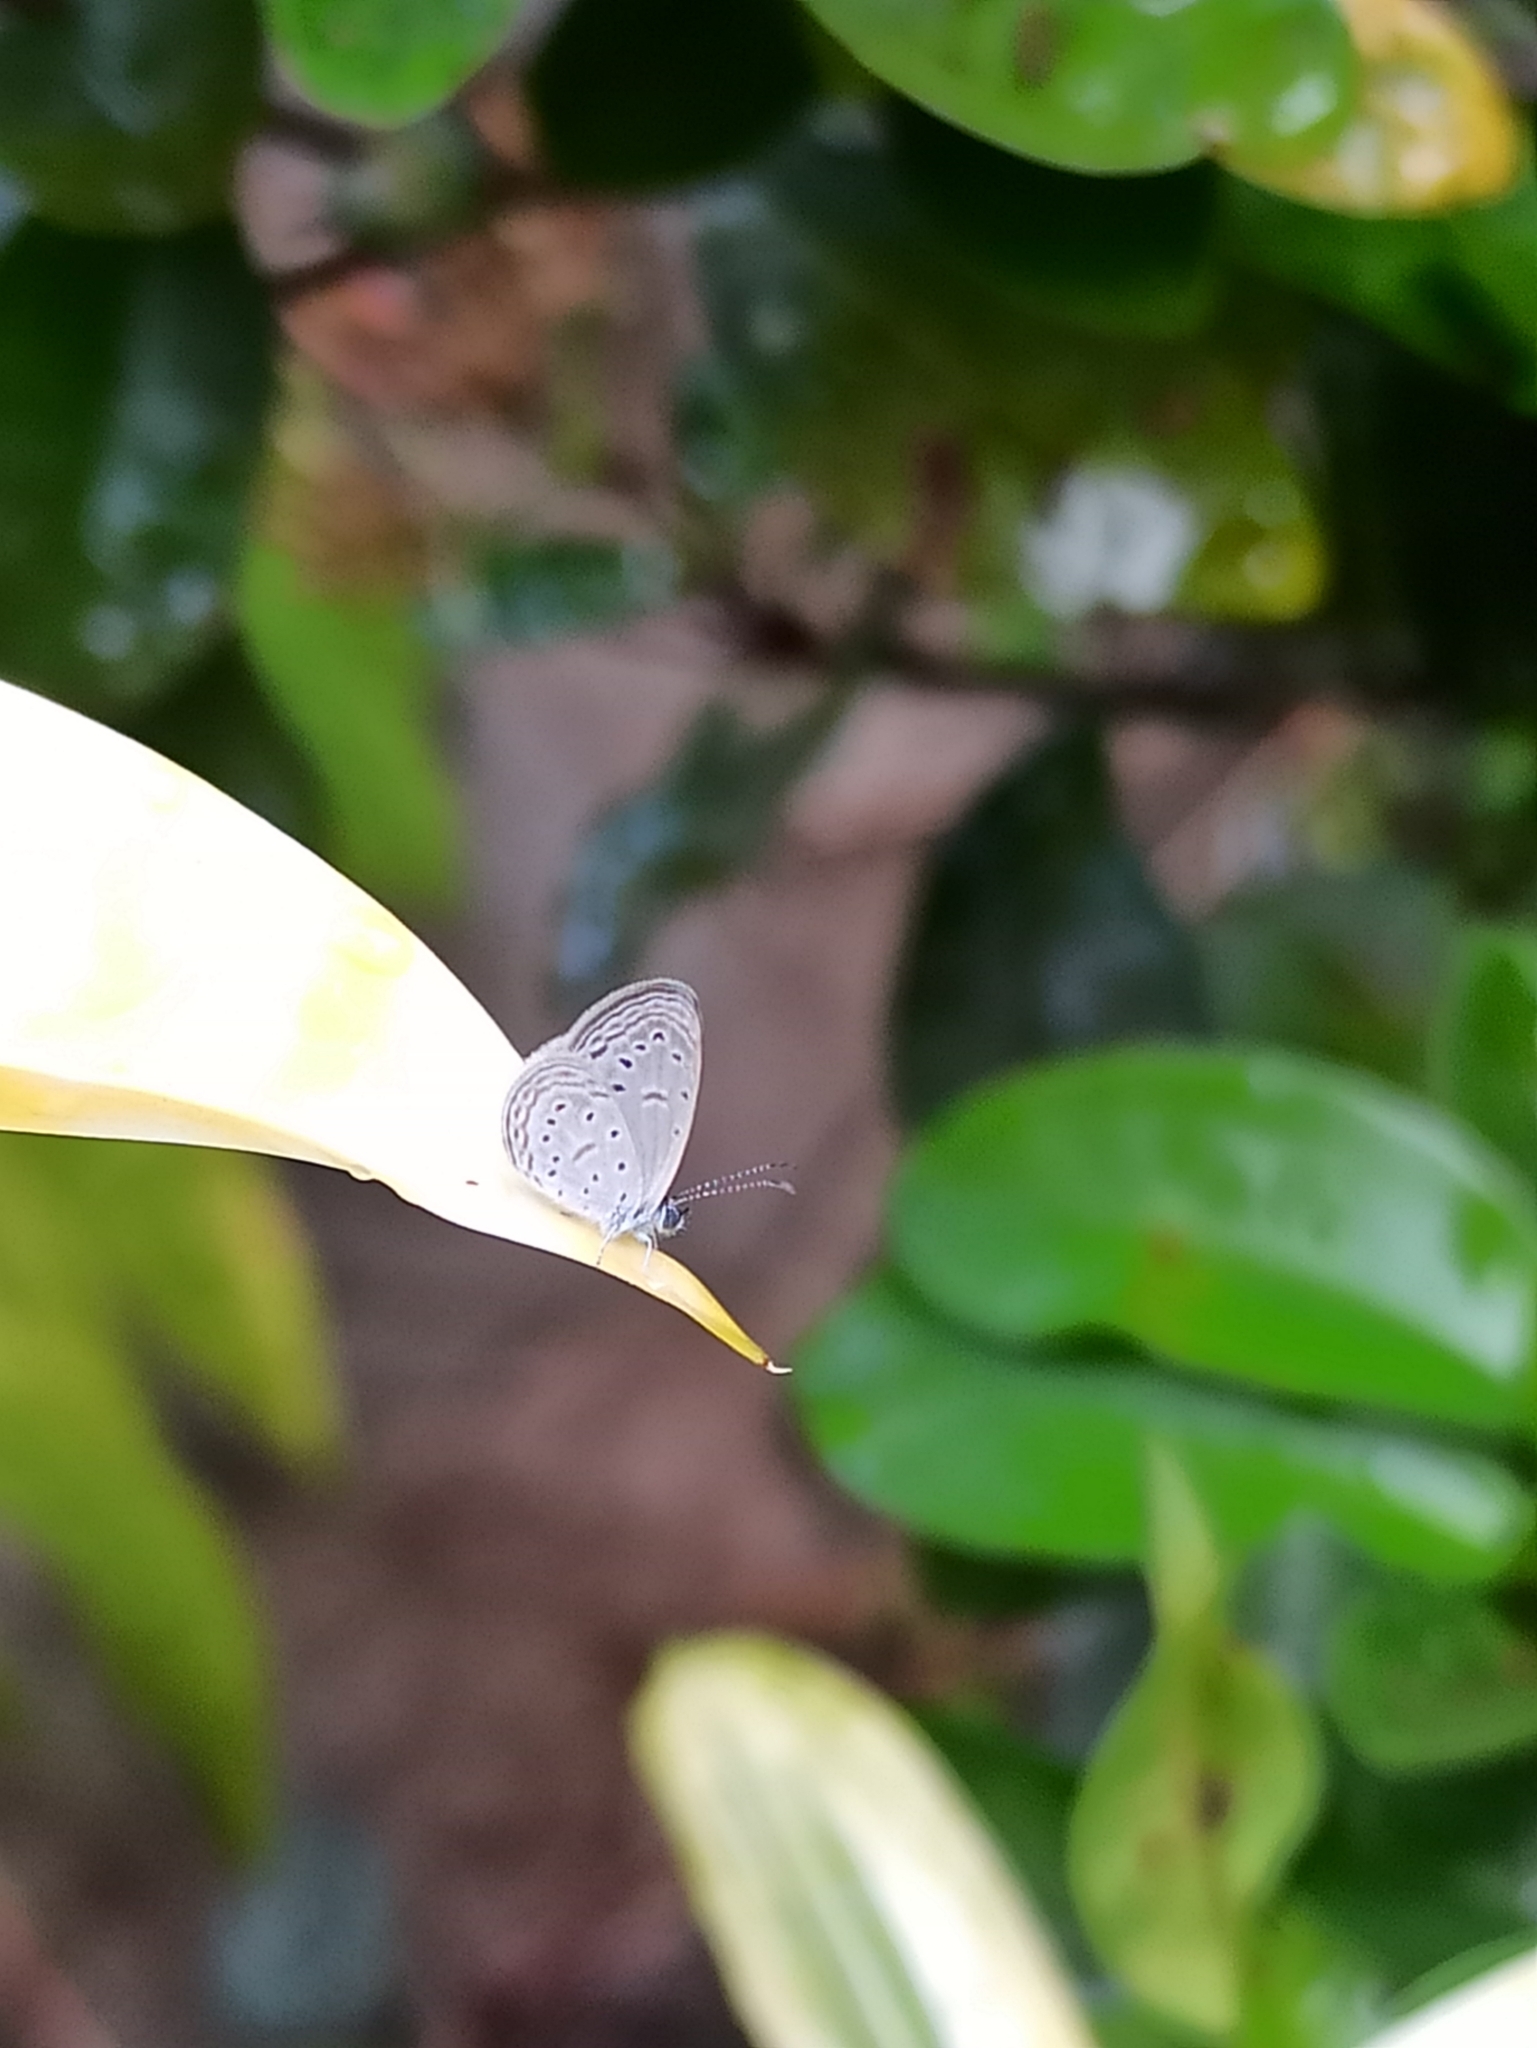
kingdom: Animalia
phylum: Arthropoda
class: Insecta
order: Lepidoptera
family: Lycaenidae
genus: Zizula
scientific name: Zizula hylax
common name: Gaika blue
